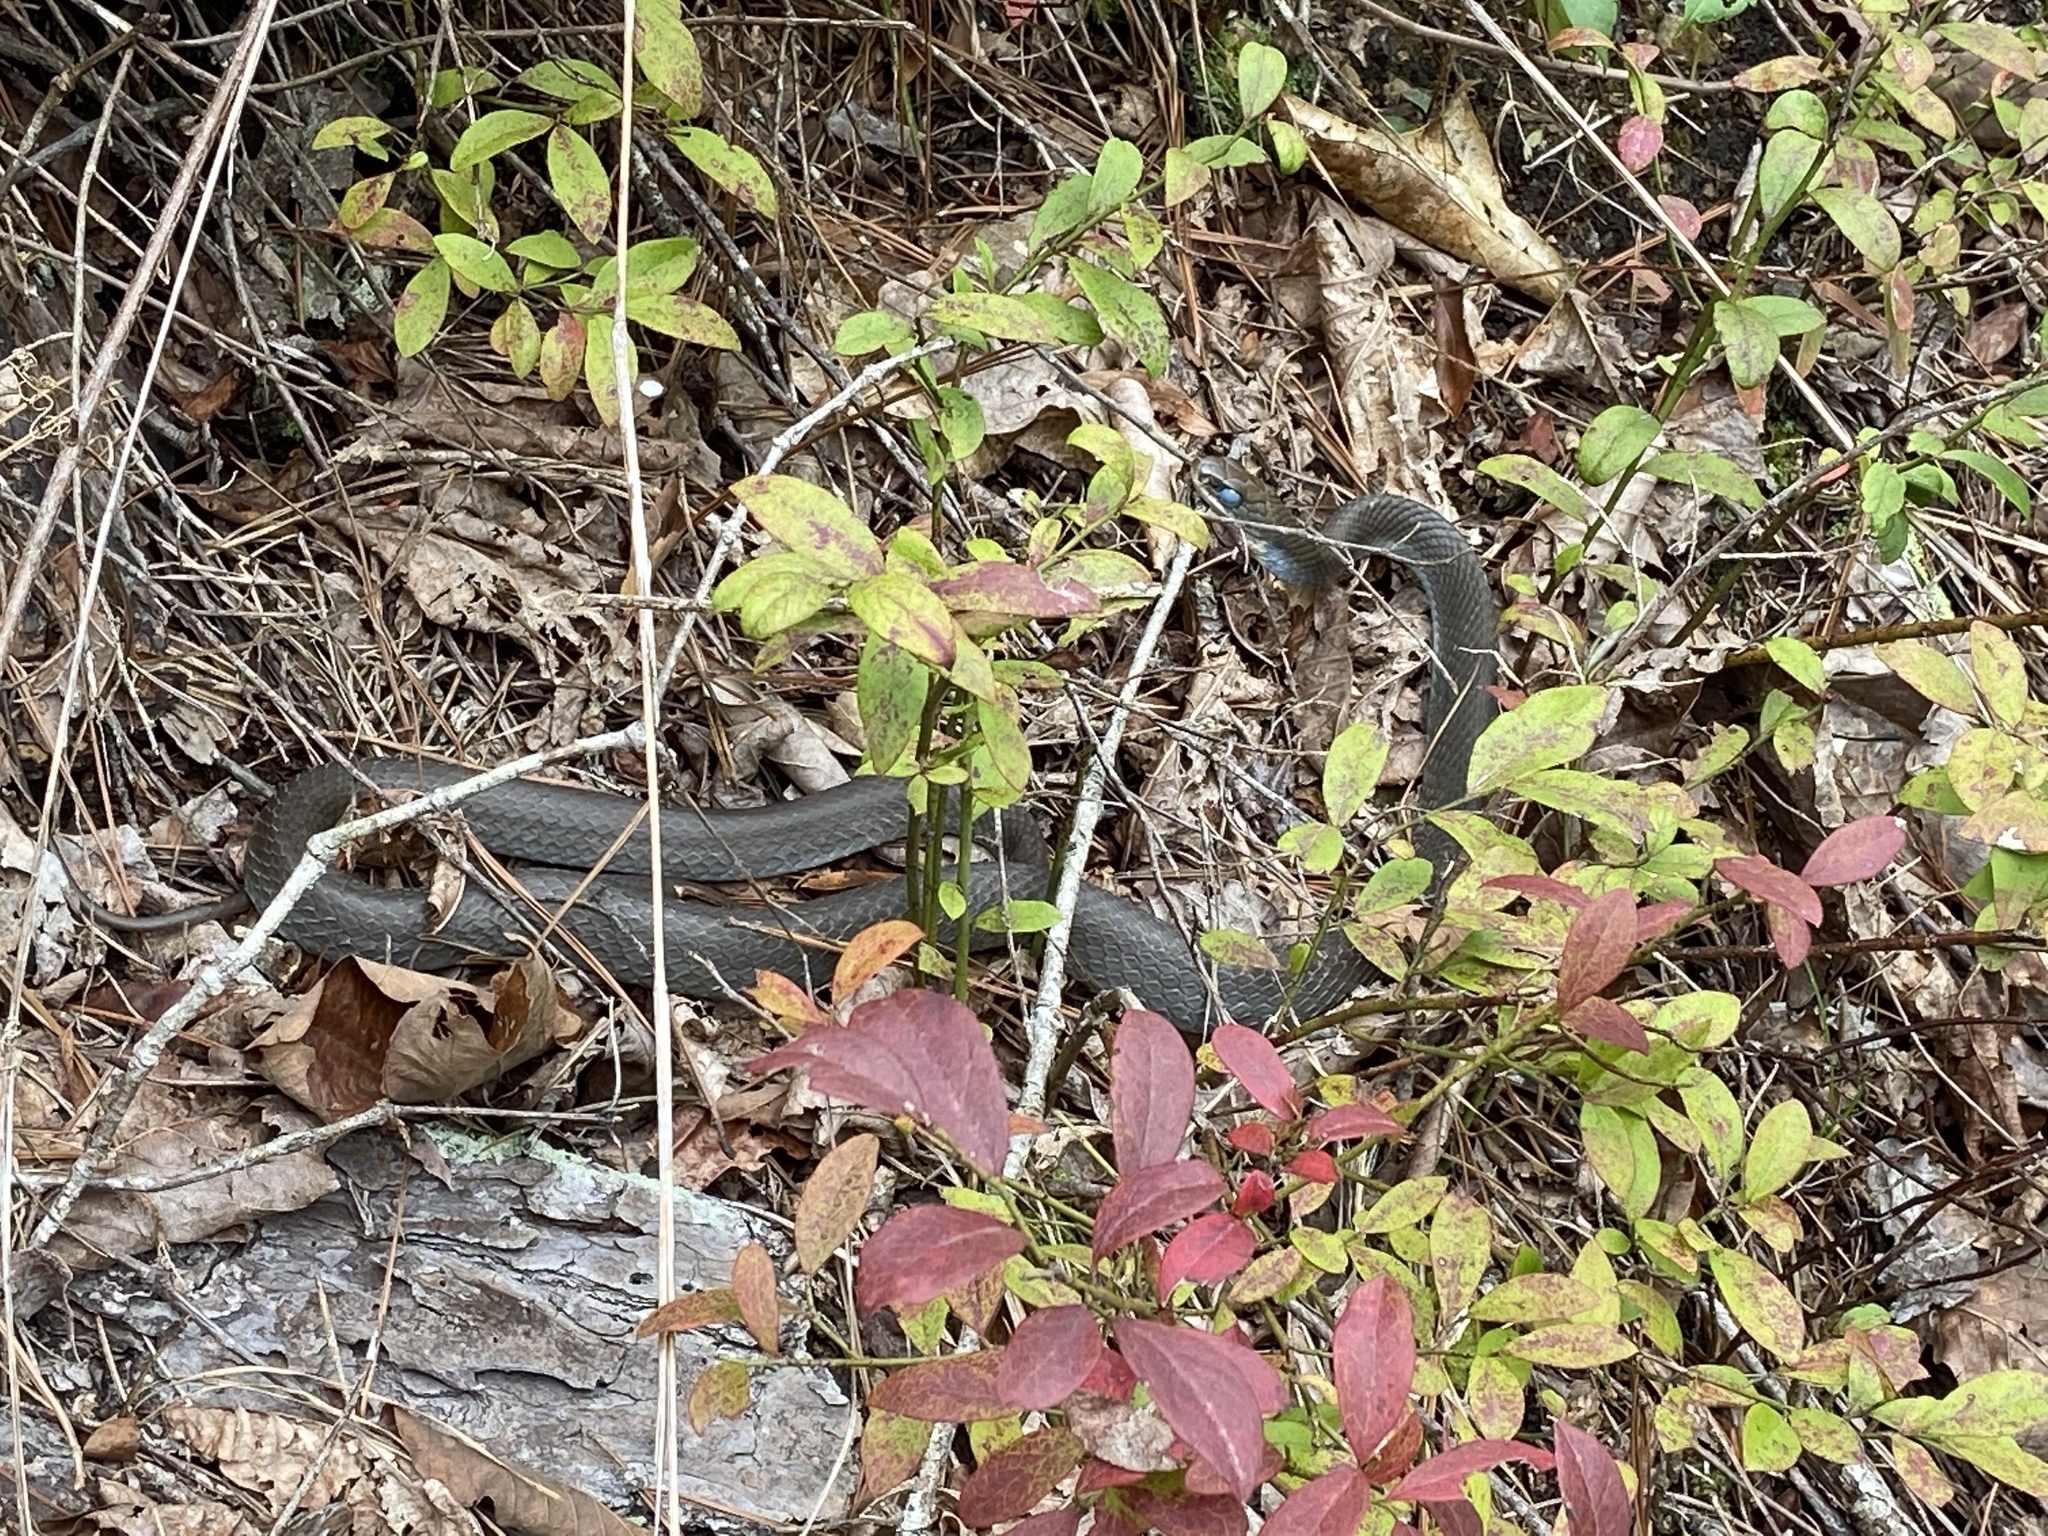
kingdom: Animalia
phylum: Chordata
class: Squamata
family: Colubridae
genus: Coluber
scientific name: Coluber constrictor
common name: Eastern racer
